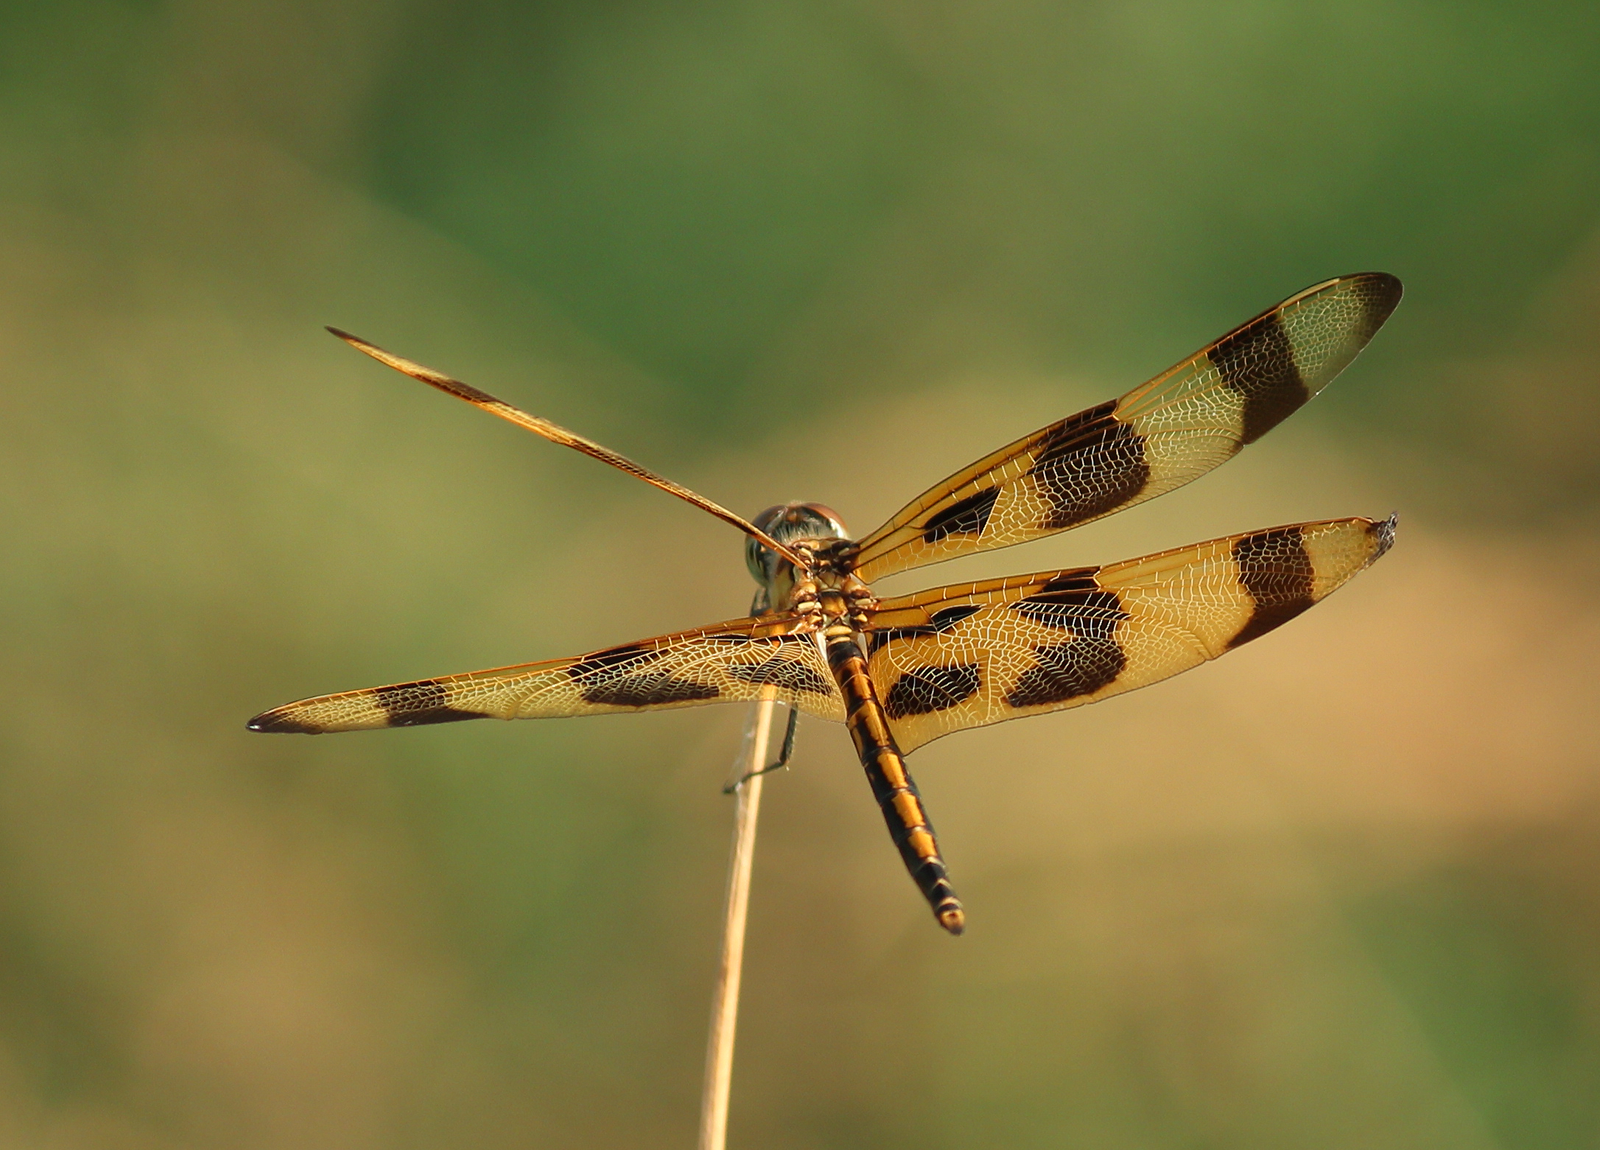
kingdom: Animalia
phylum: Arthropoda
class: Insecta
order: Odonata
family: Libellulidae
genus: Celithemis
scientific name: Celithemis eponina
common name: Halloween pennant
